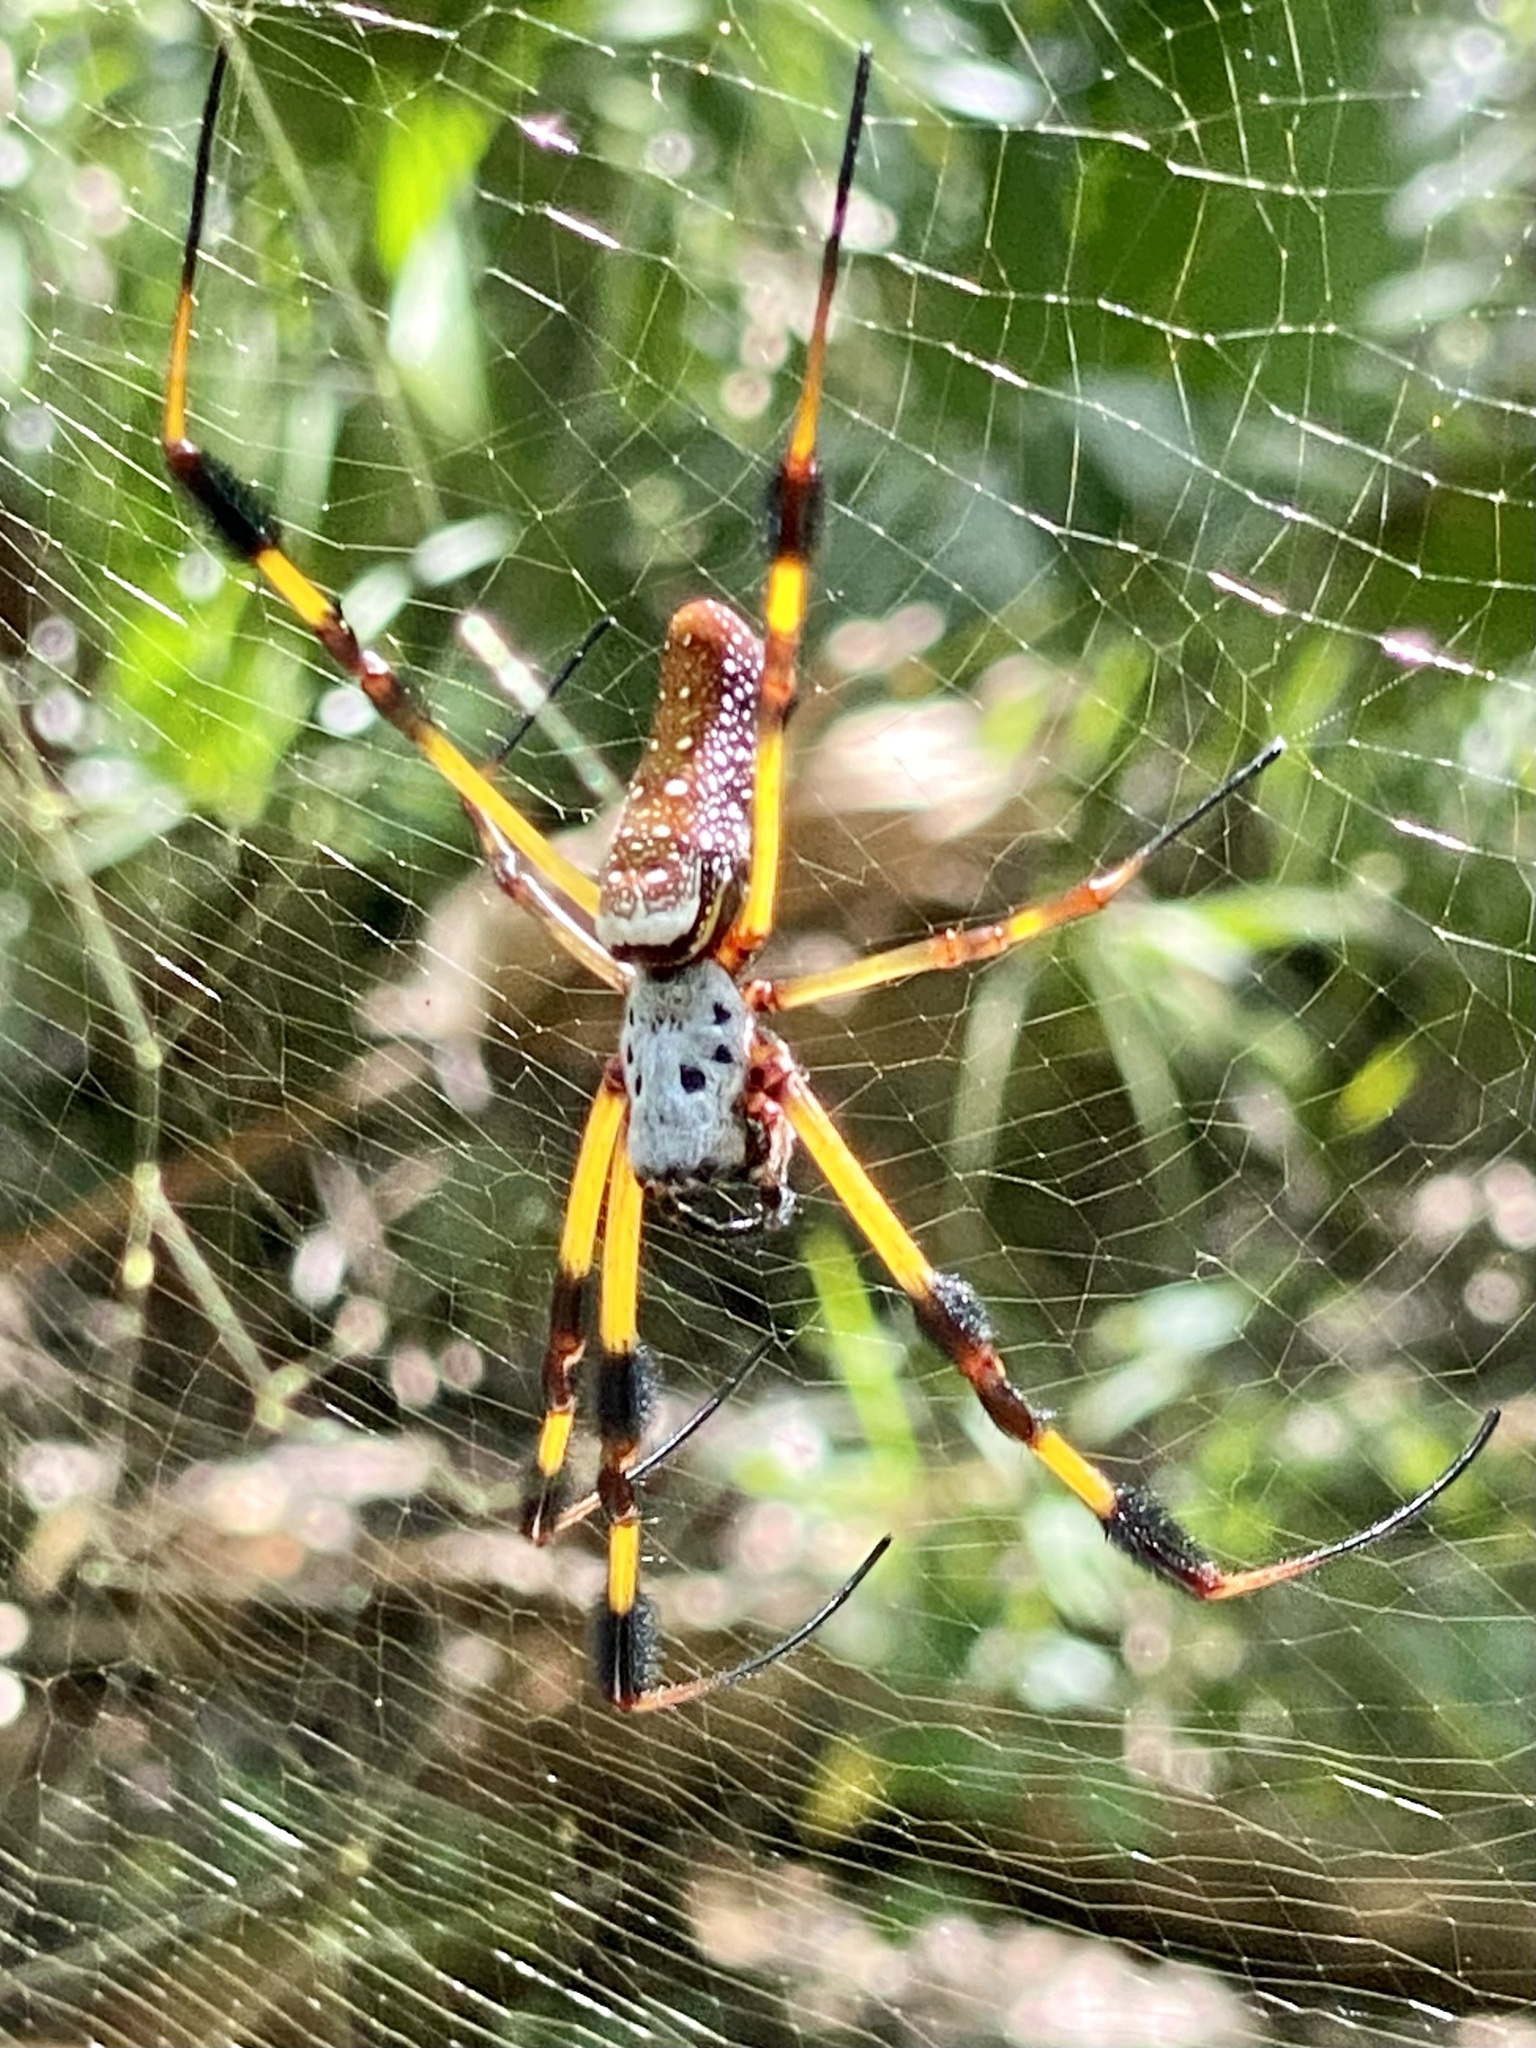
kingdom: Animalia
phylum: Arthropoda
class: Arachnida
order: Araneae
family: Araneidae
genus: Trichonephila
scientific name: Trichonephila clavipes
